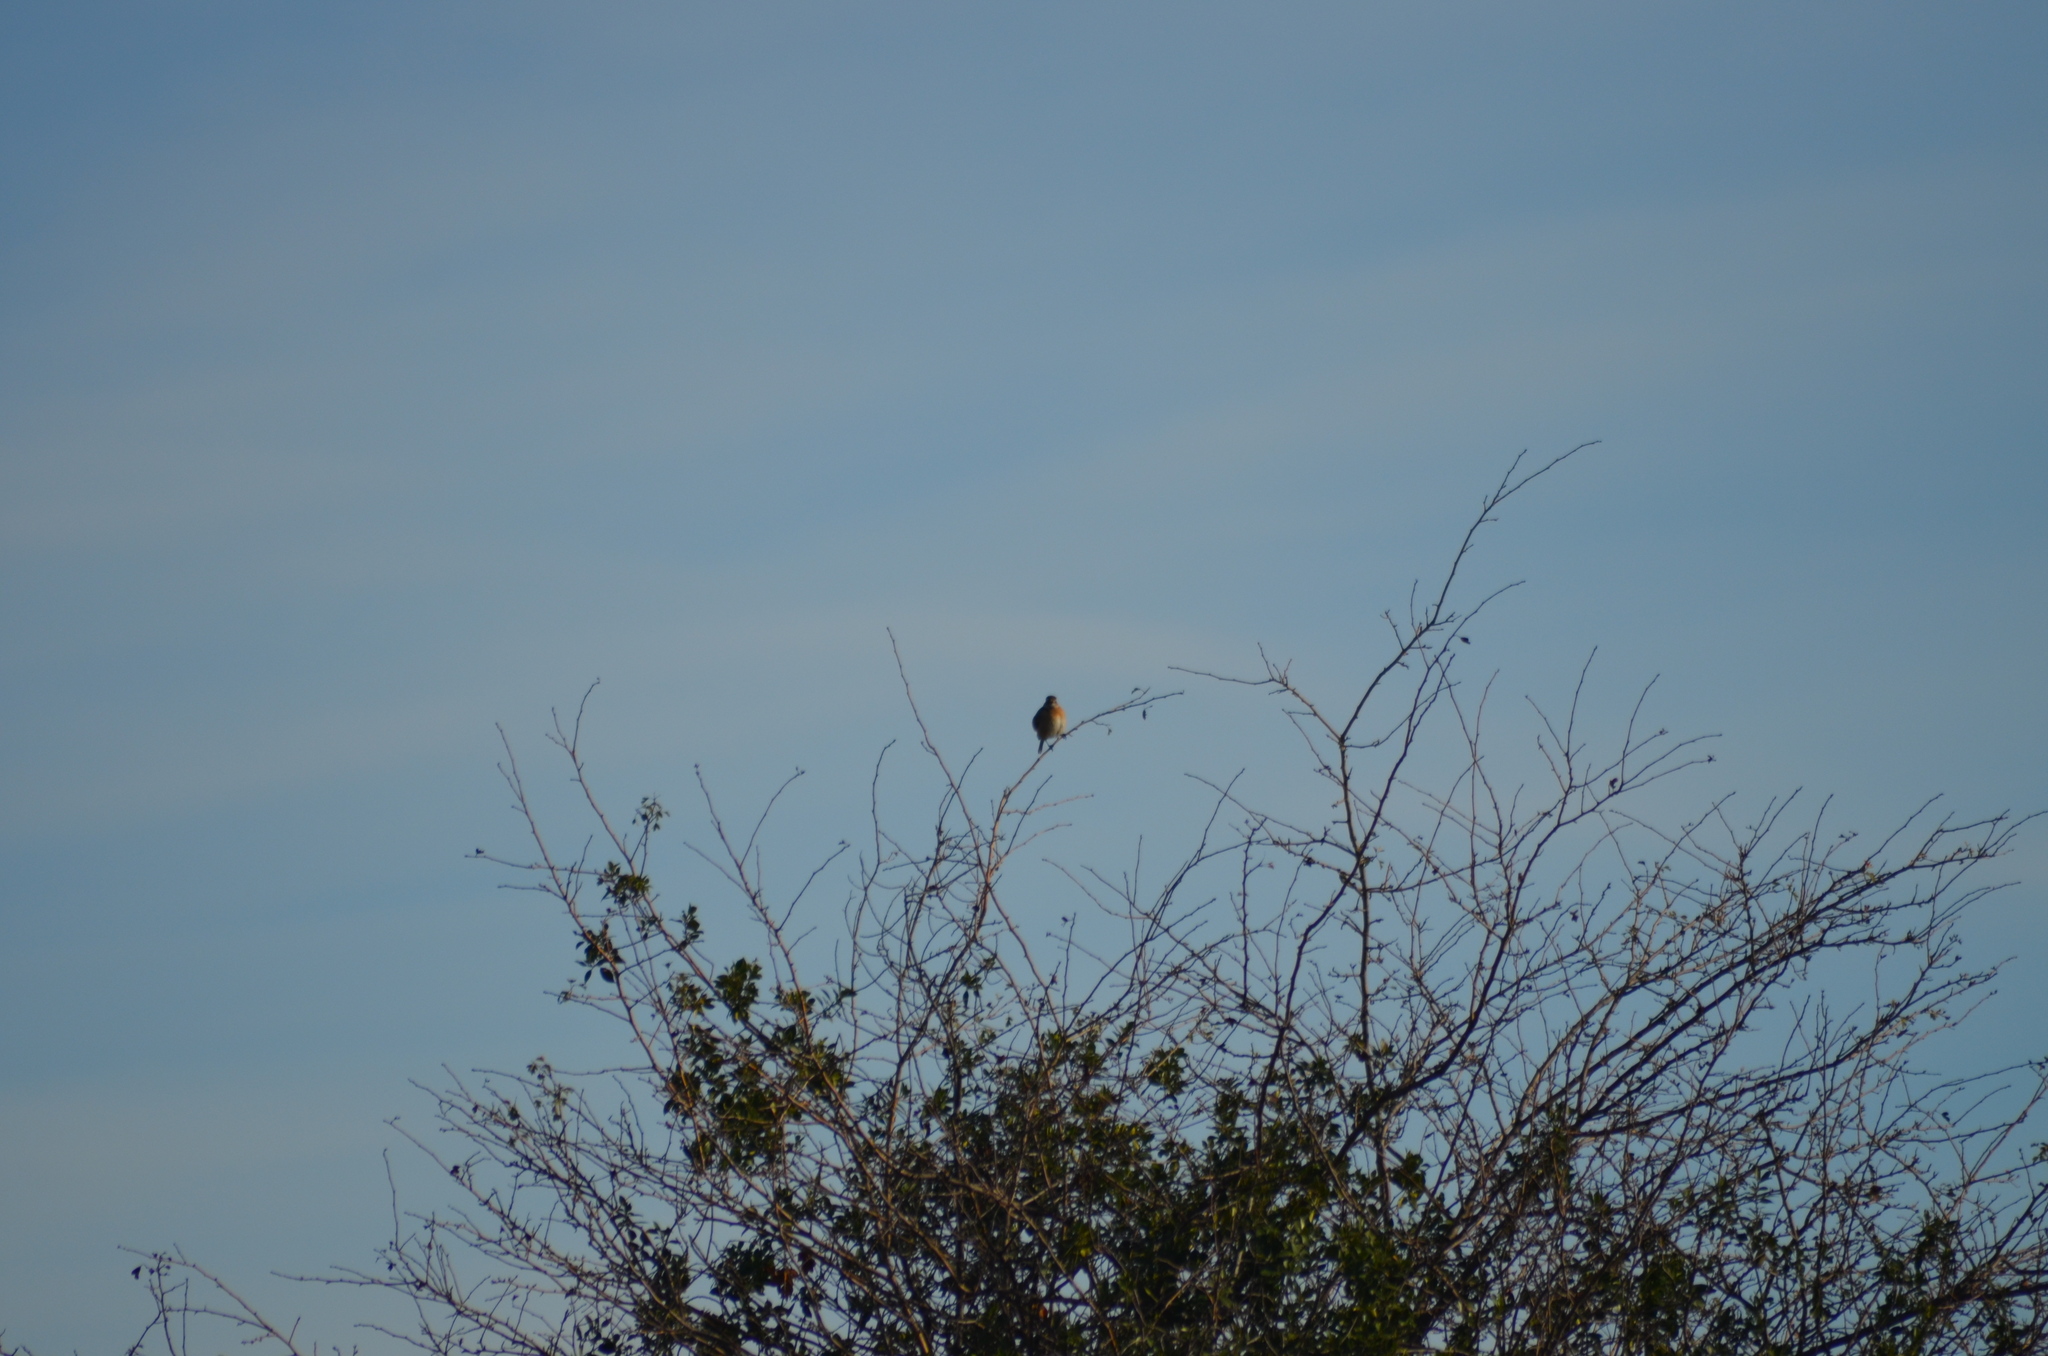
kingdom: Animalia
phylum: Chordata
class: Aves
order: Passeriformes
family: Muscicapidae
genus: Saxicola
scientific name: Saxicola rubicola
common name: European stonechat
